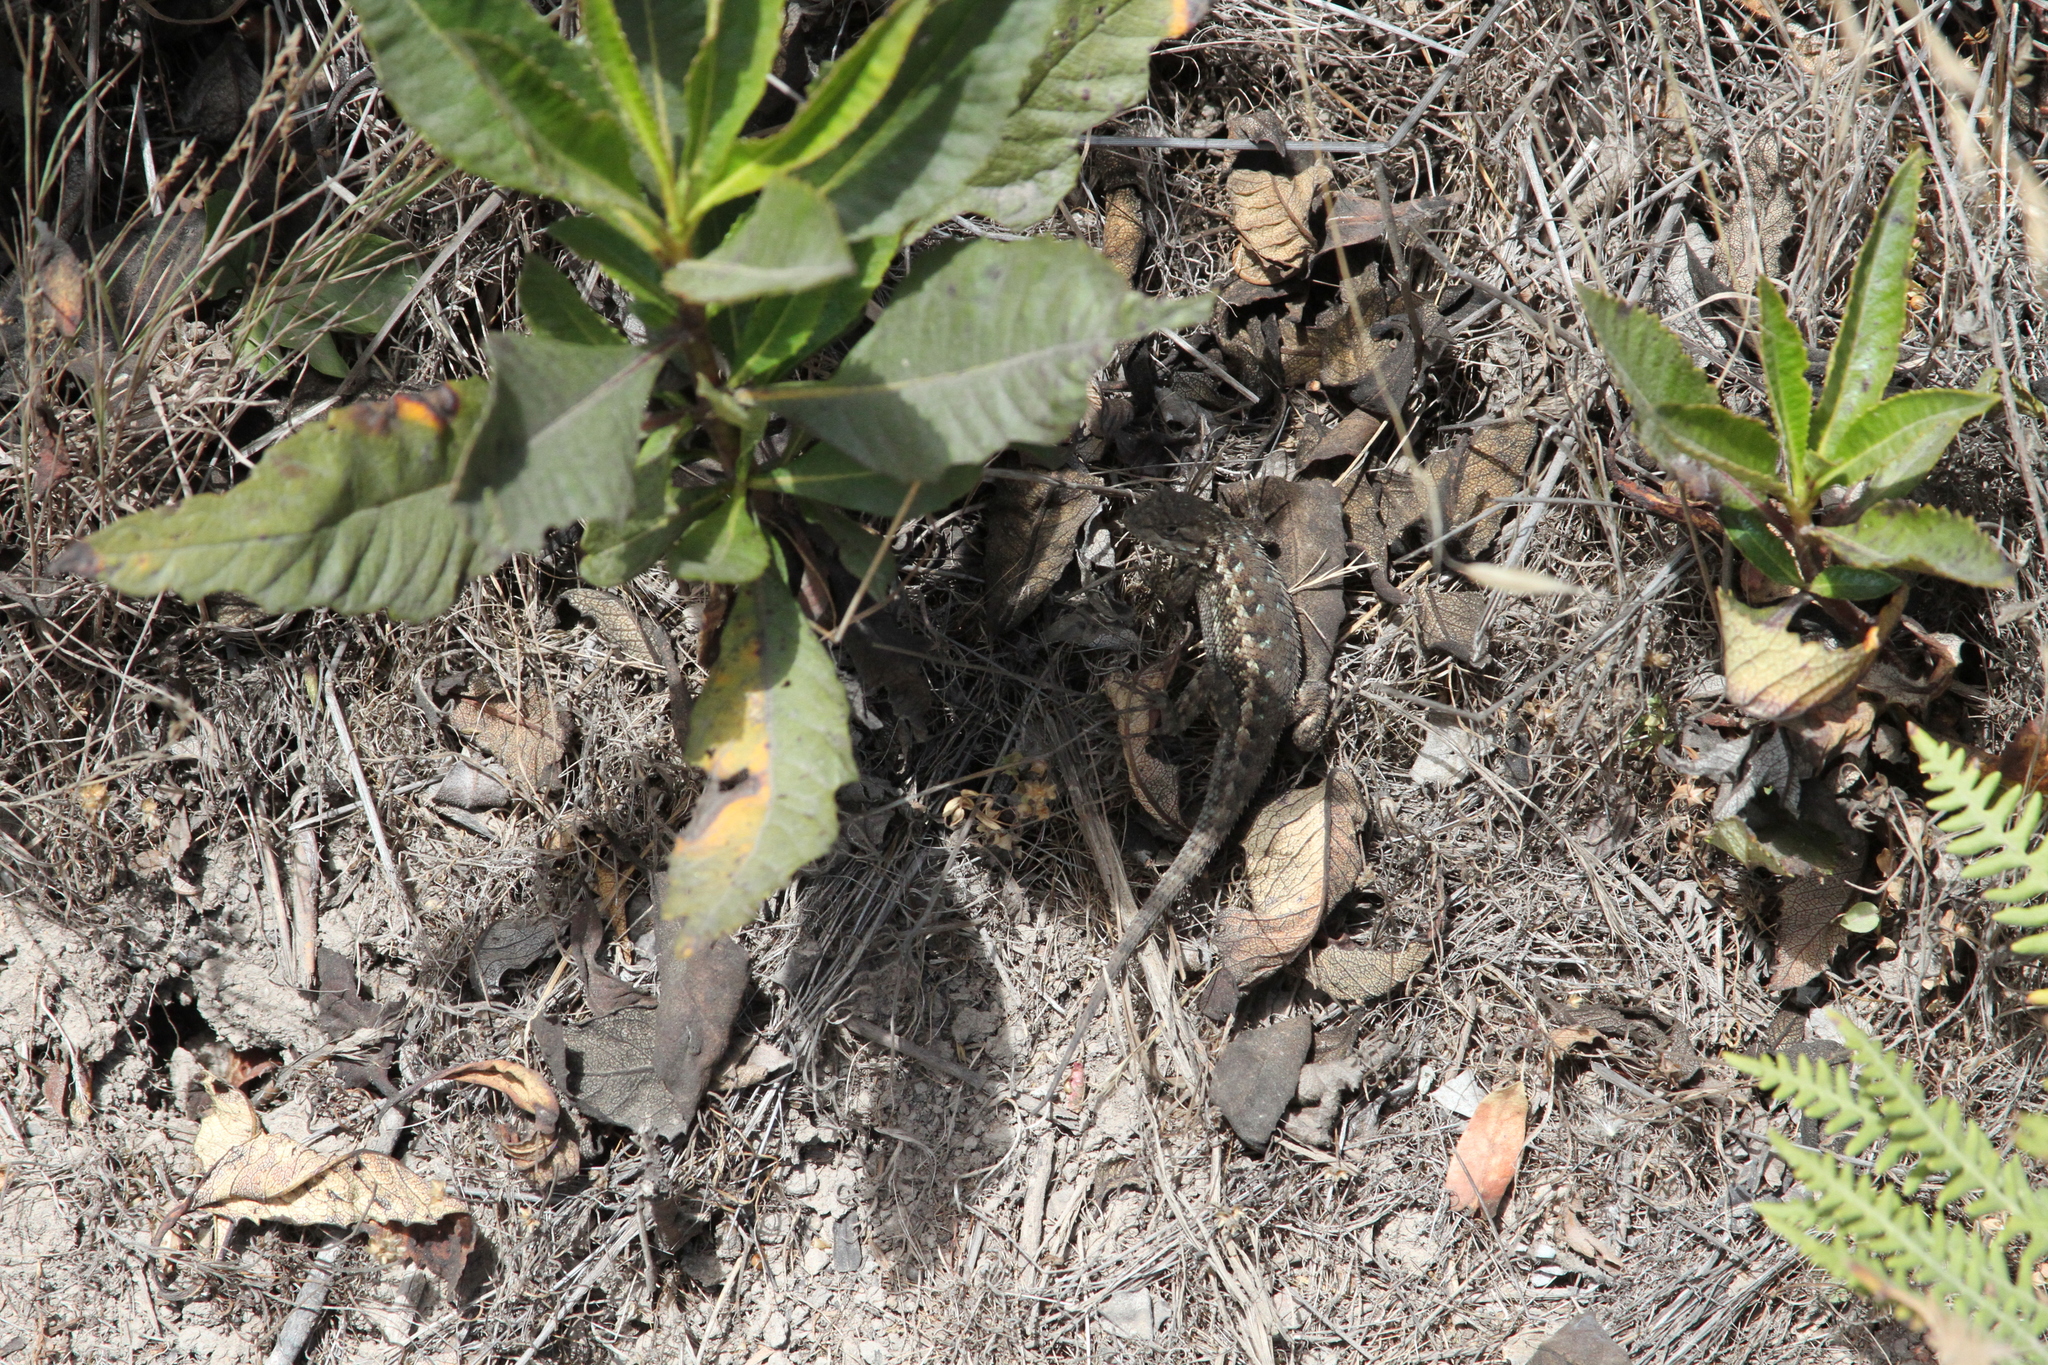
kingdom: Animalia
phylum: Chordata
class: Squamata
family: Phrynosomatidae
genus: Sceloporus
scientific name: Sceloporus occidentalis
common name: Western fence lizard
